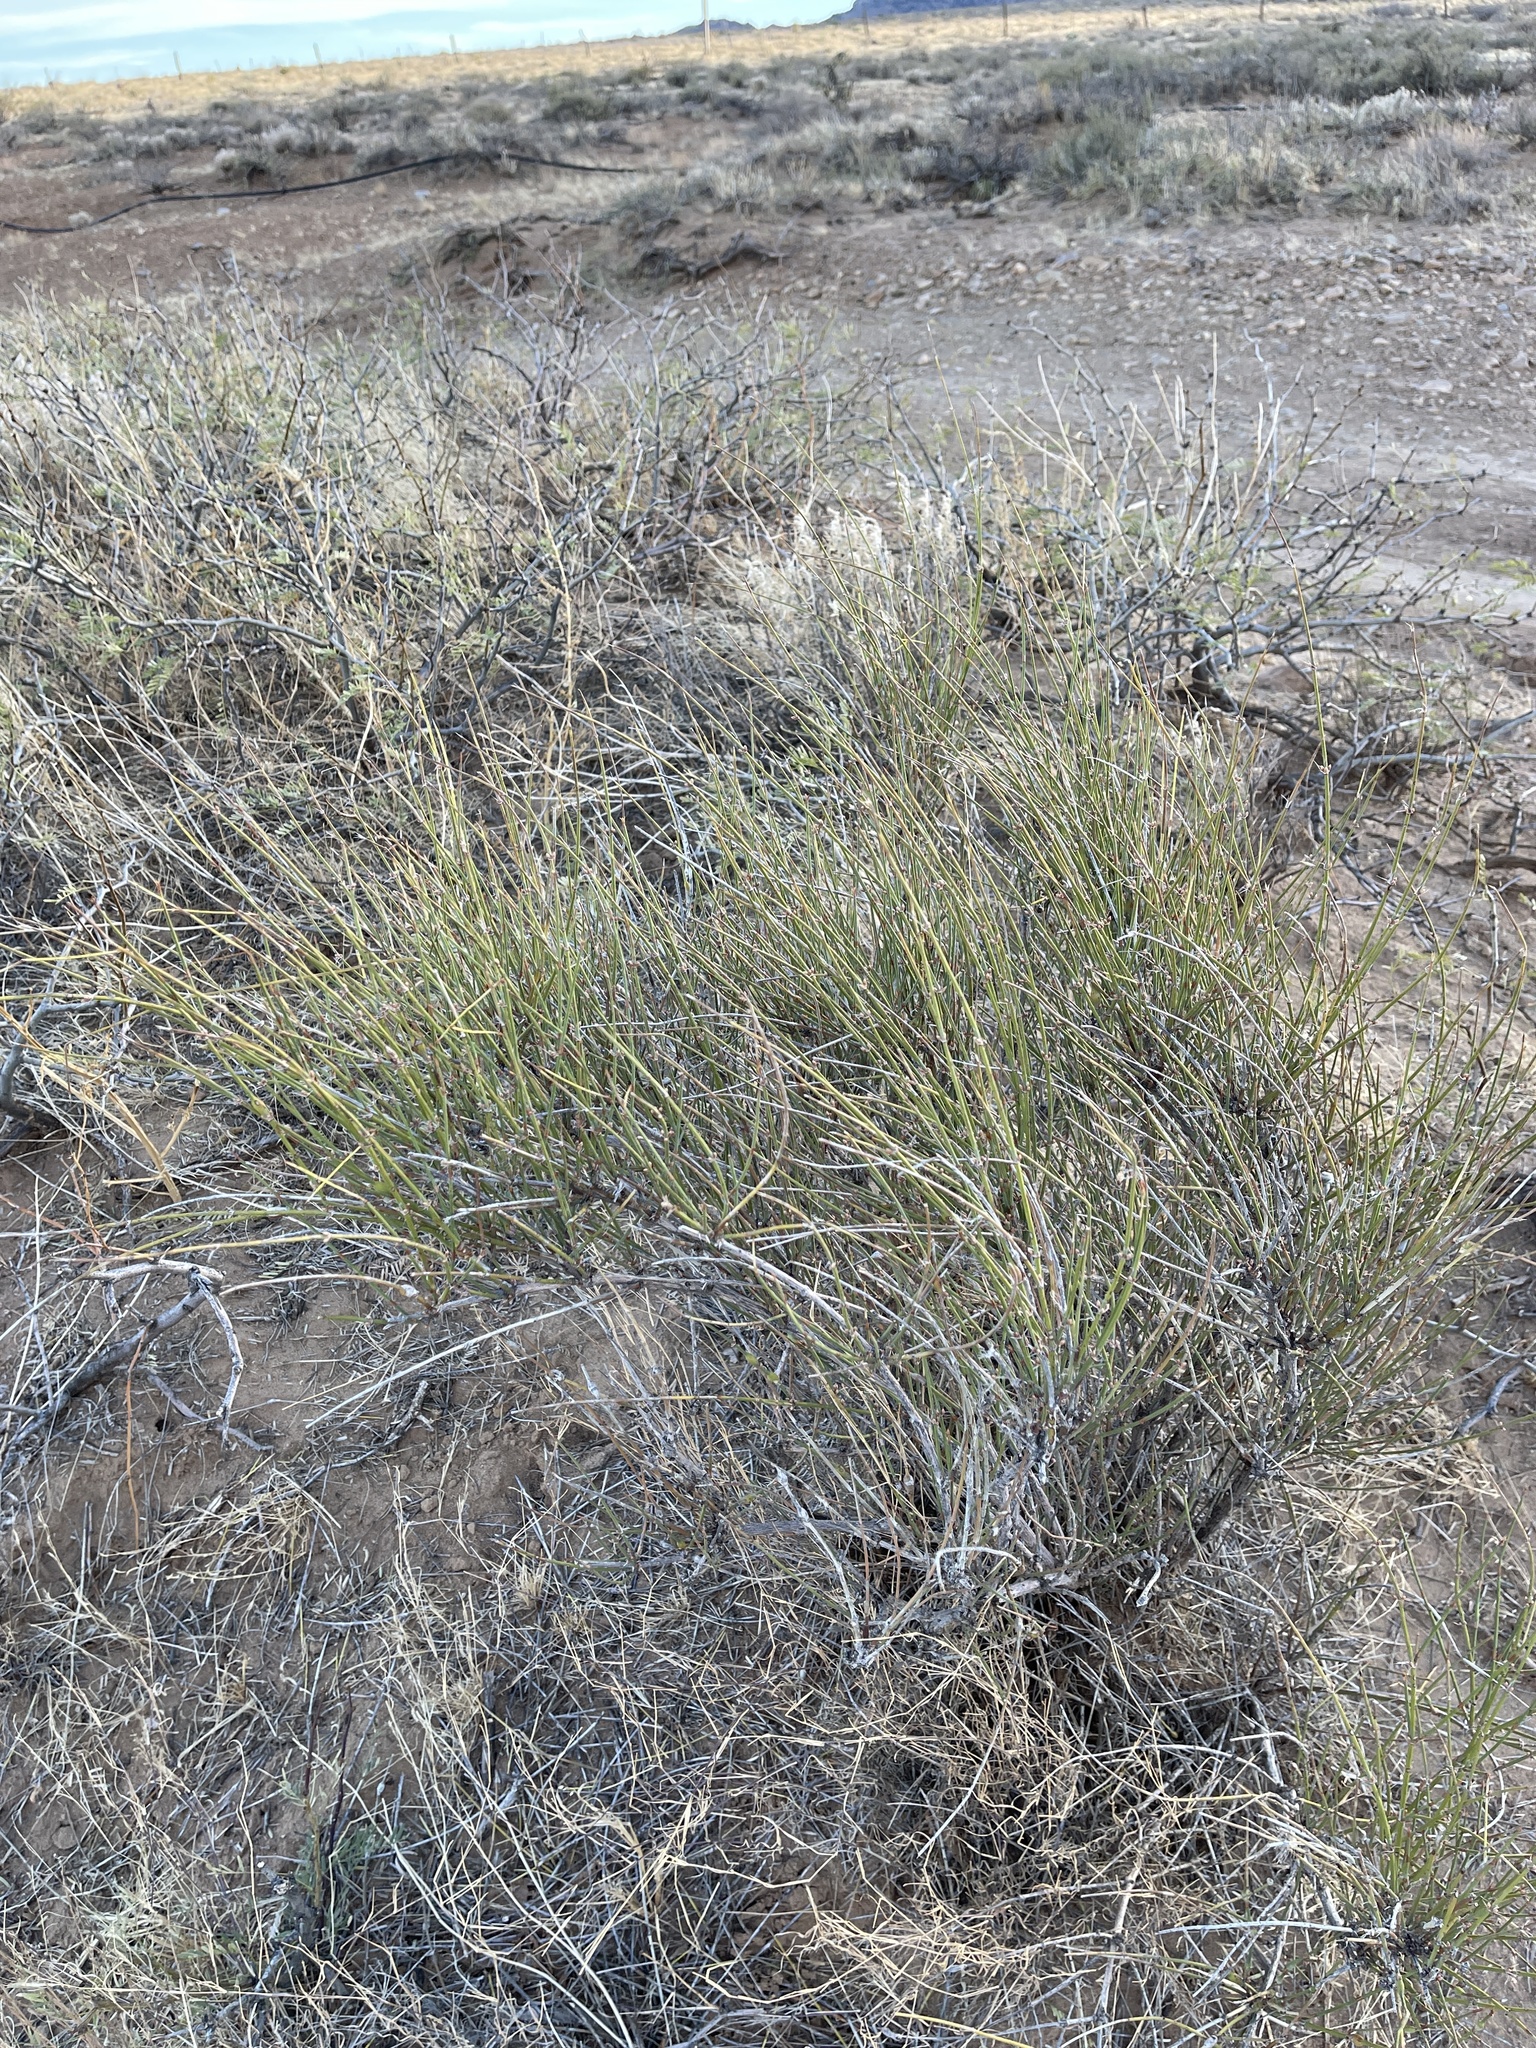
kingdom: Plantae
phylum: Tracheophyta
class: Gnetopsida
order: Ephedrales
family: Ephedraceae
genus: Ephedra
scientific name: Ephedra trifurca
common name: Mexican-tea
